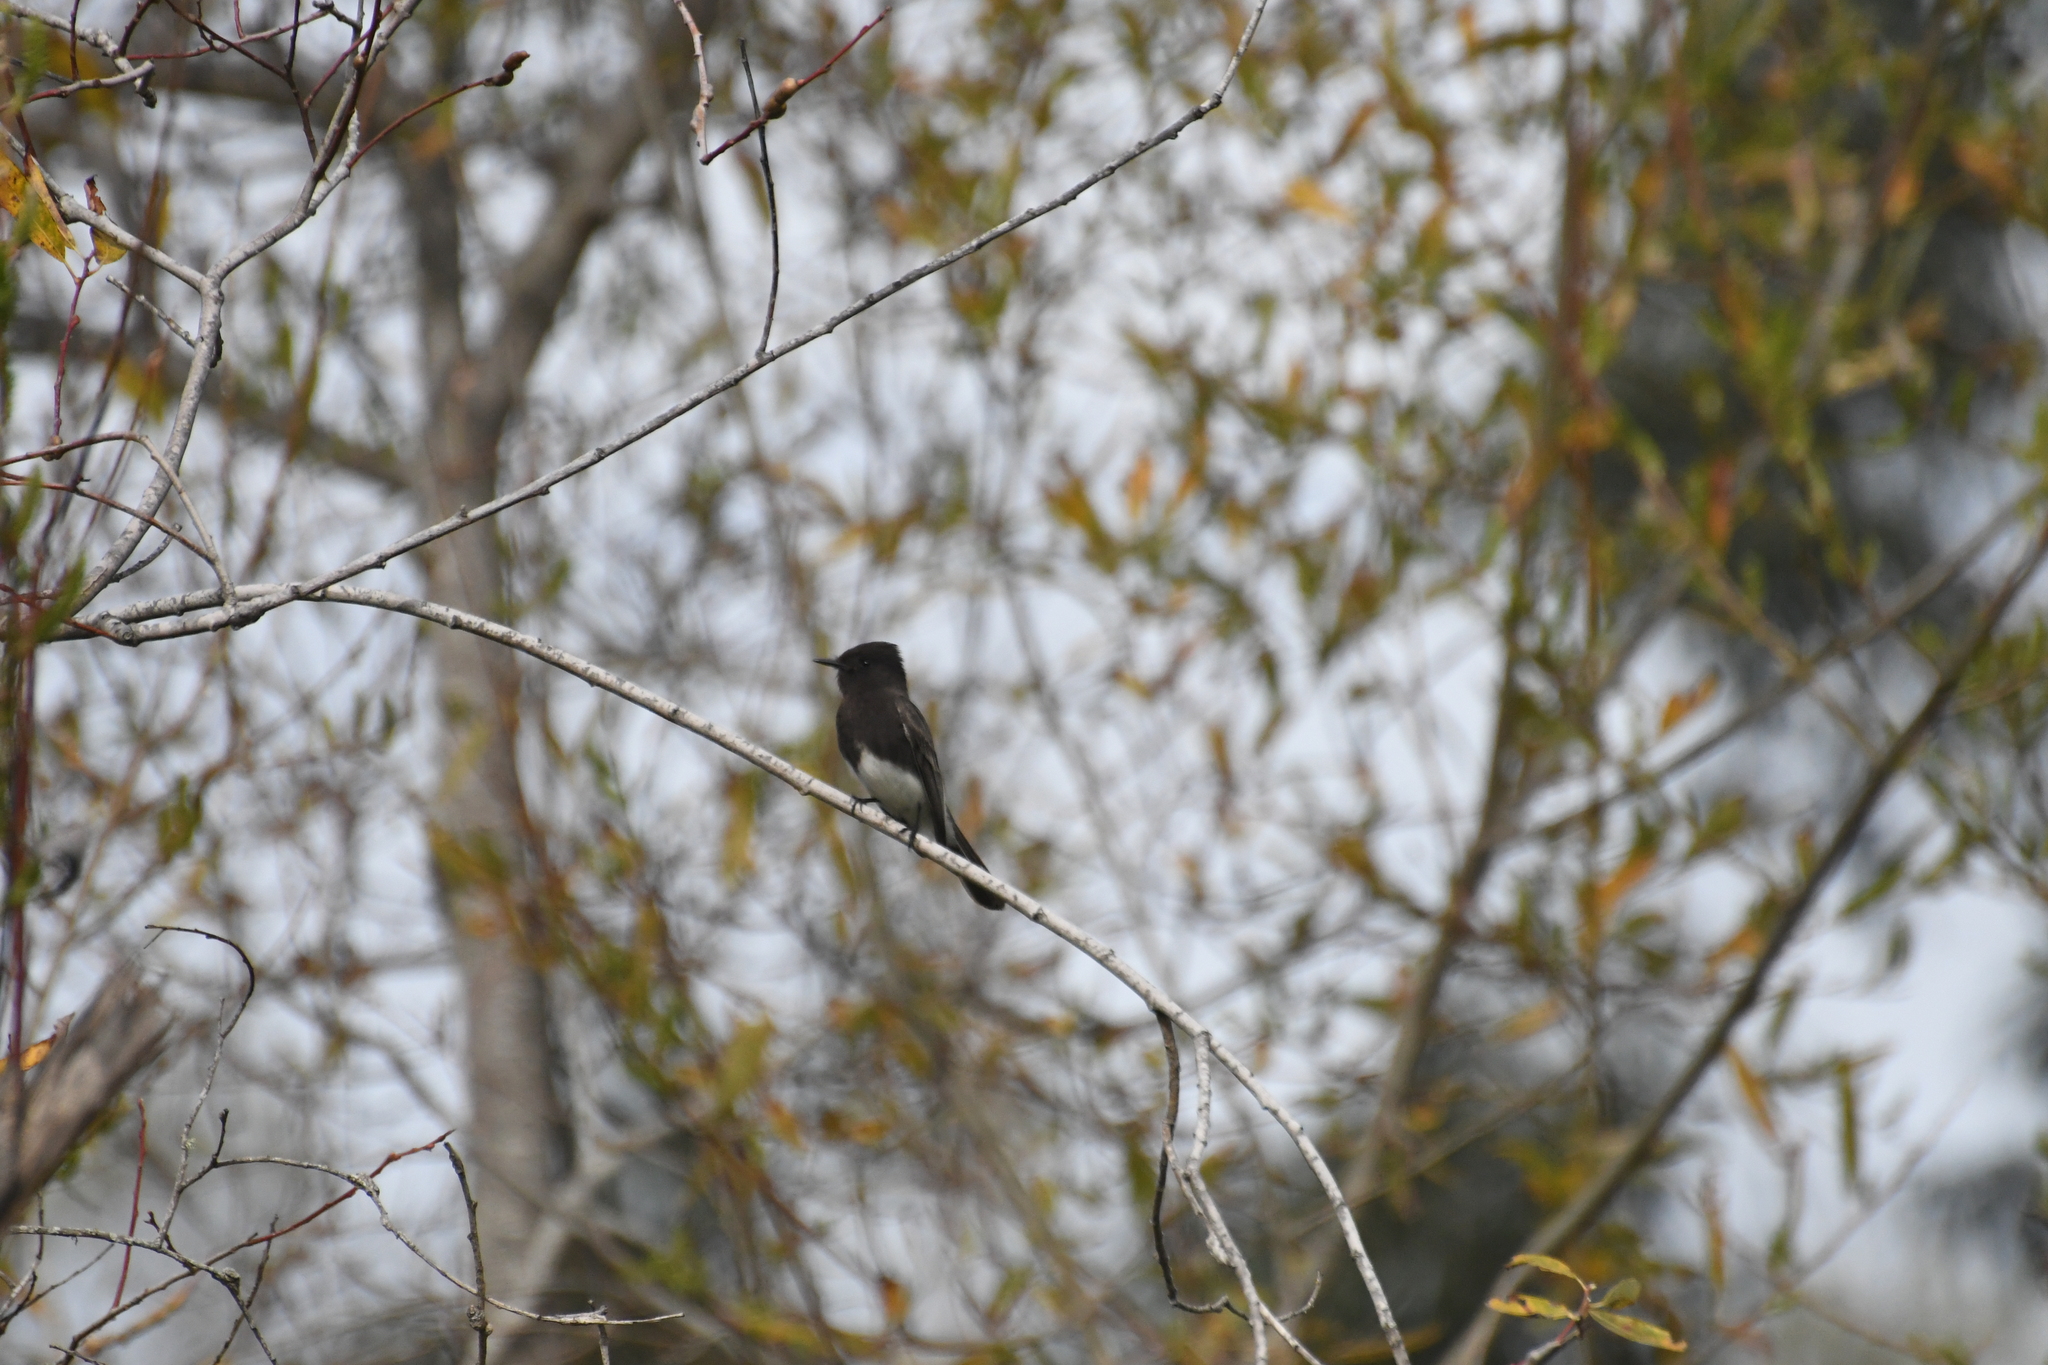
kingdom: Animalia
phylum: Chordata
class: Aves
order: Passeriformes
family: Tyrannidae
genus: Sayornis
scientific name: Sayornis nigricans
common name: Black phoebe
